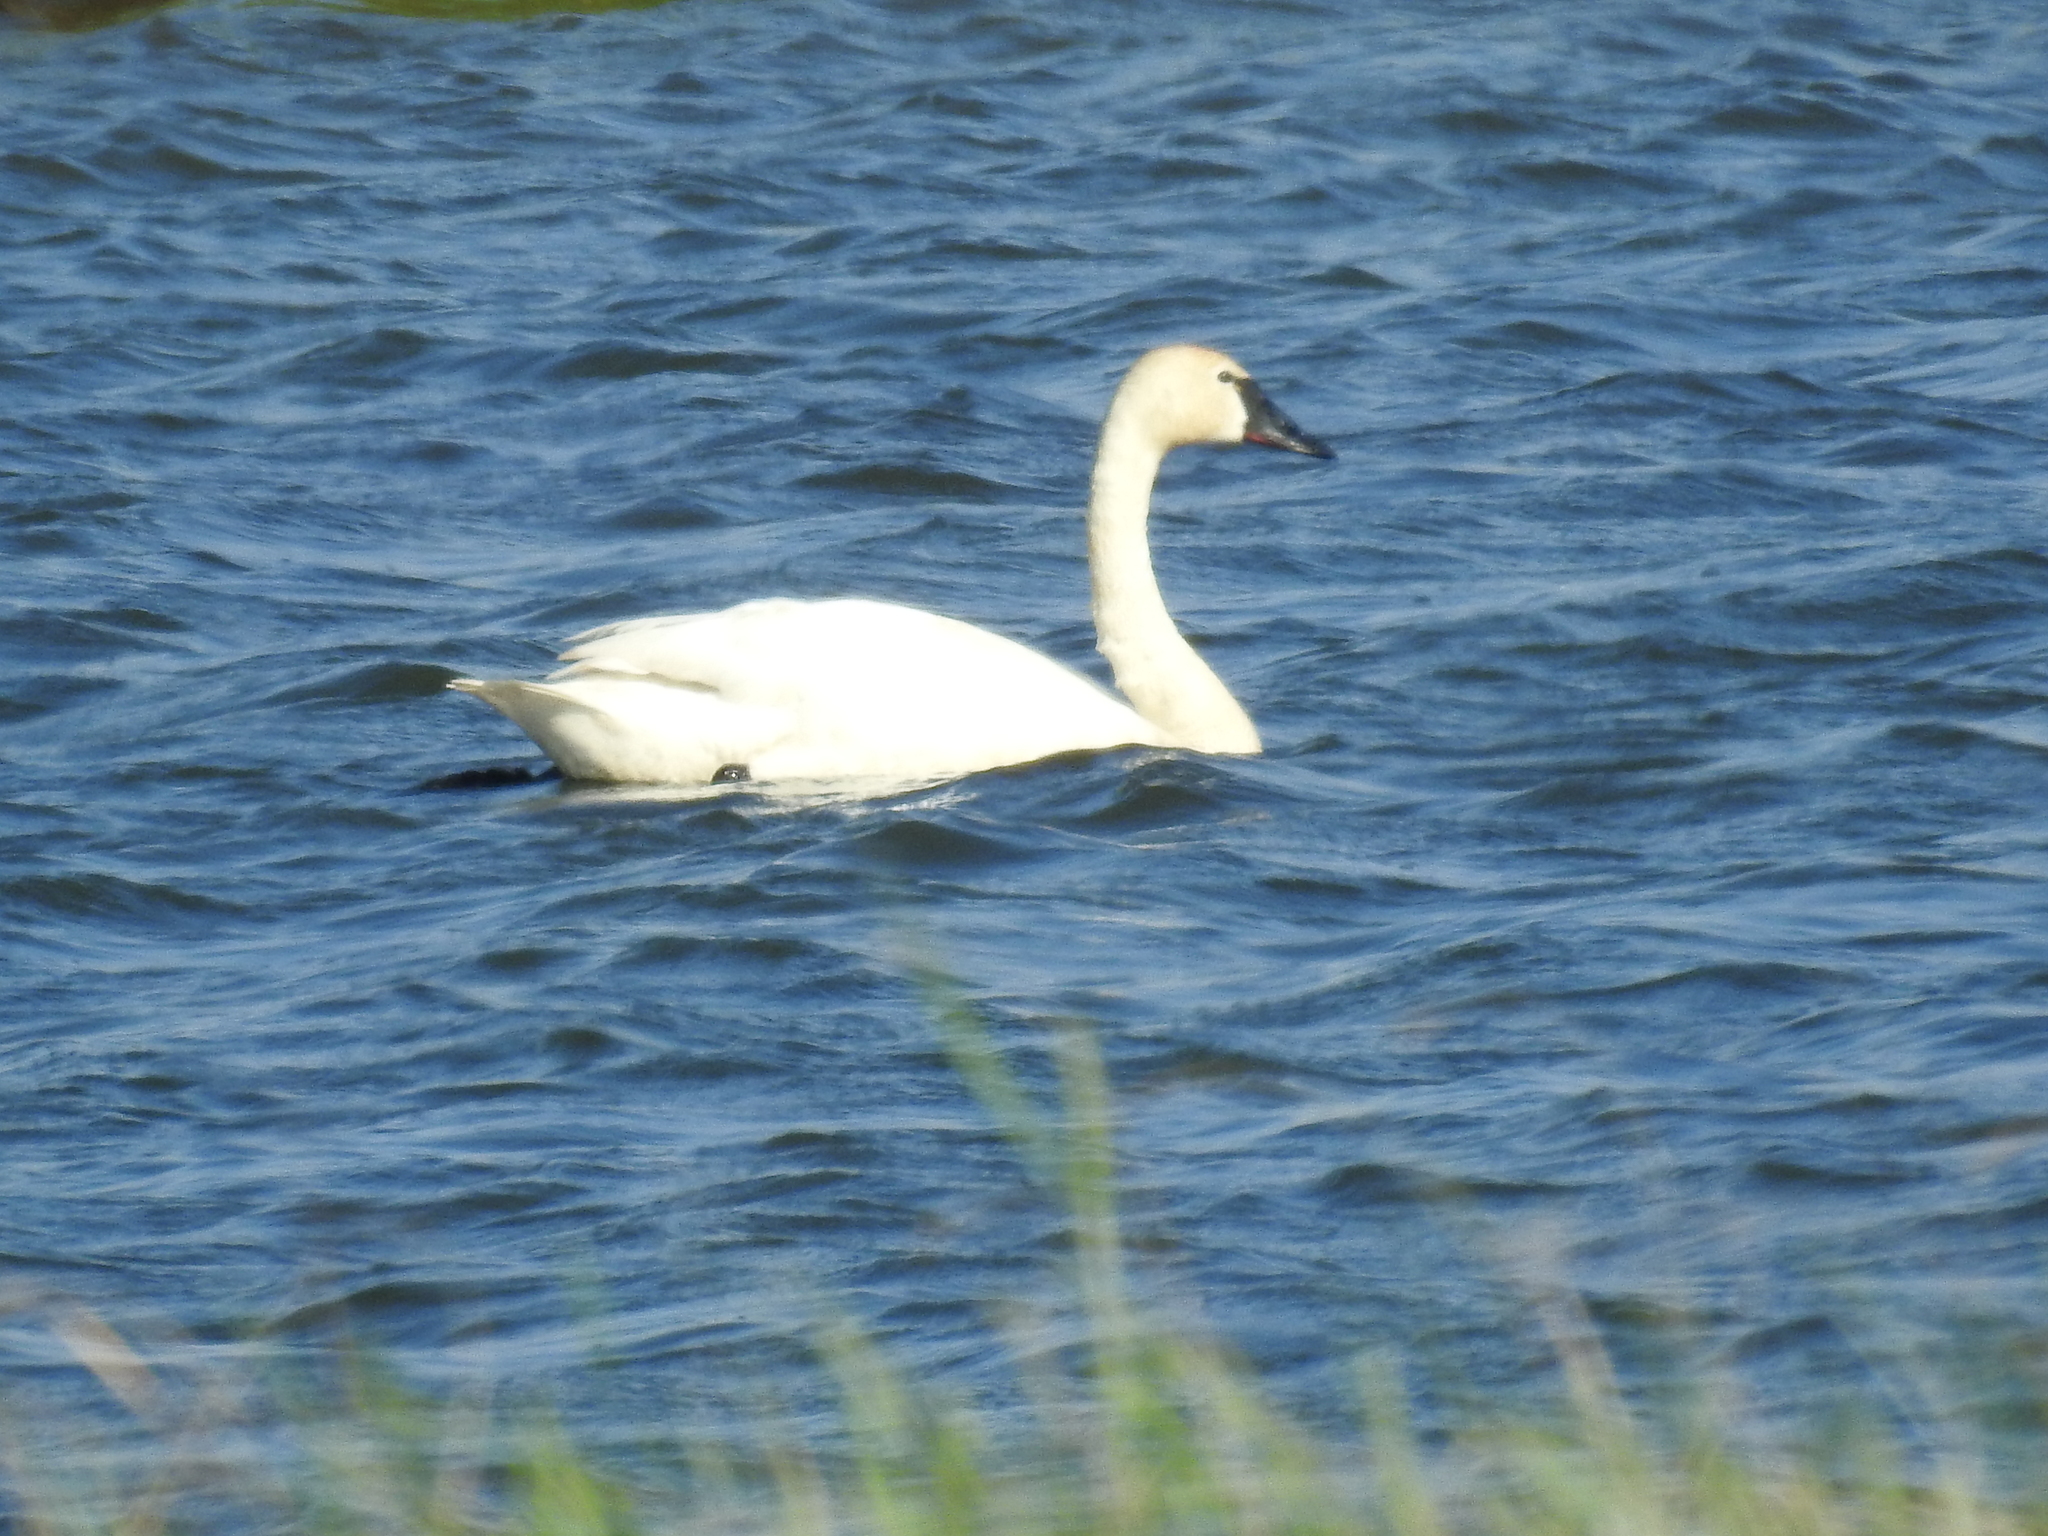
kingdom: Animalia
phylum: Chordata
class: Aves
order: Anseriformes
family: Anatidae
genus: Cygnus
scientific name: Cygnus columbianus
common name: Tundra swan
